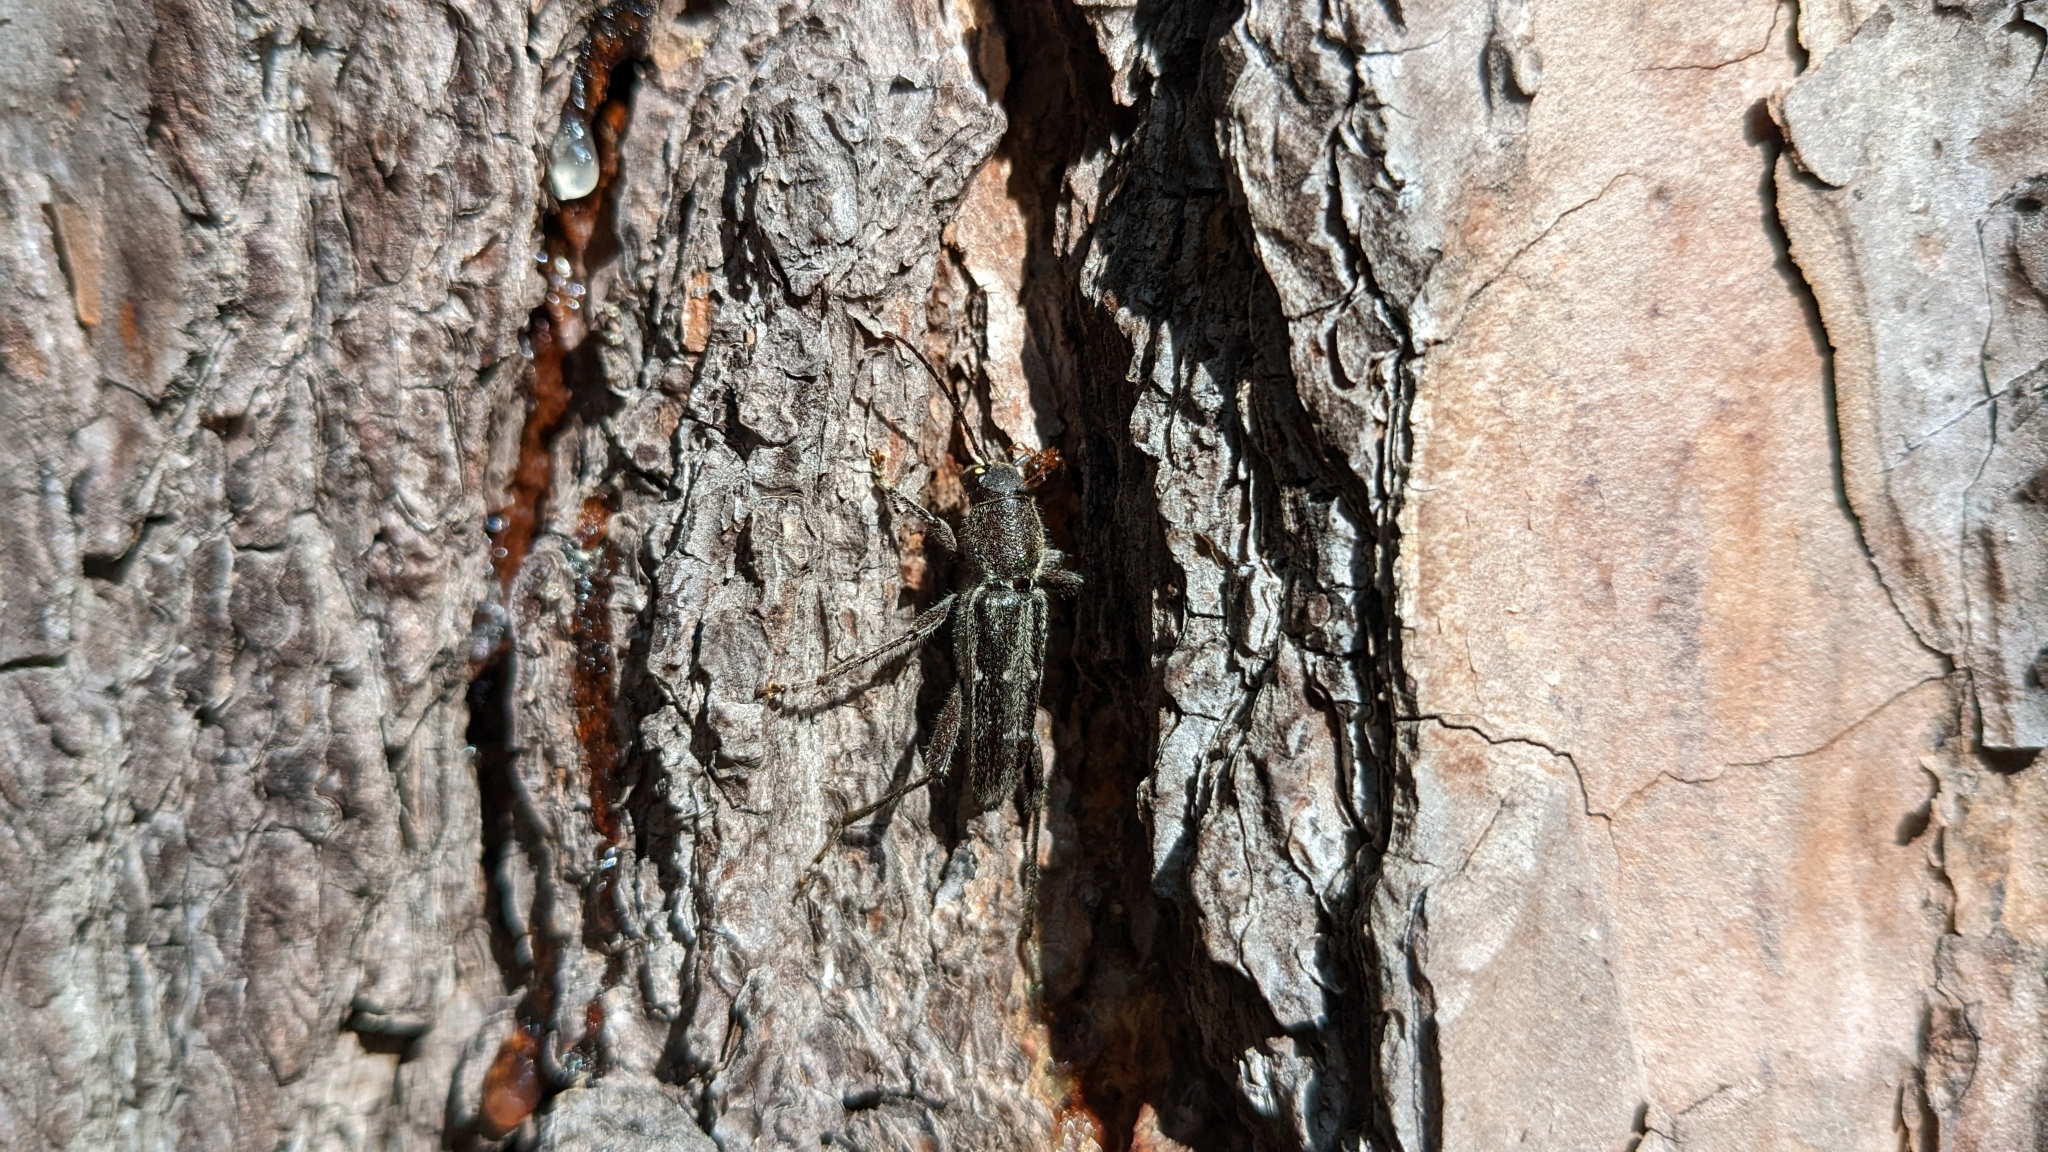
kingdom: Animalia
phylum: Arthropoda
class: Insecta
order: Coleoptera
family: Cerambycidae
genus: Xylotrechus
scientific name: Xylotrechus sagittatus
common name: Arrowhead borer
